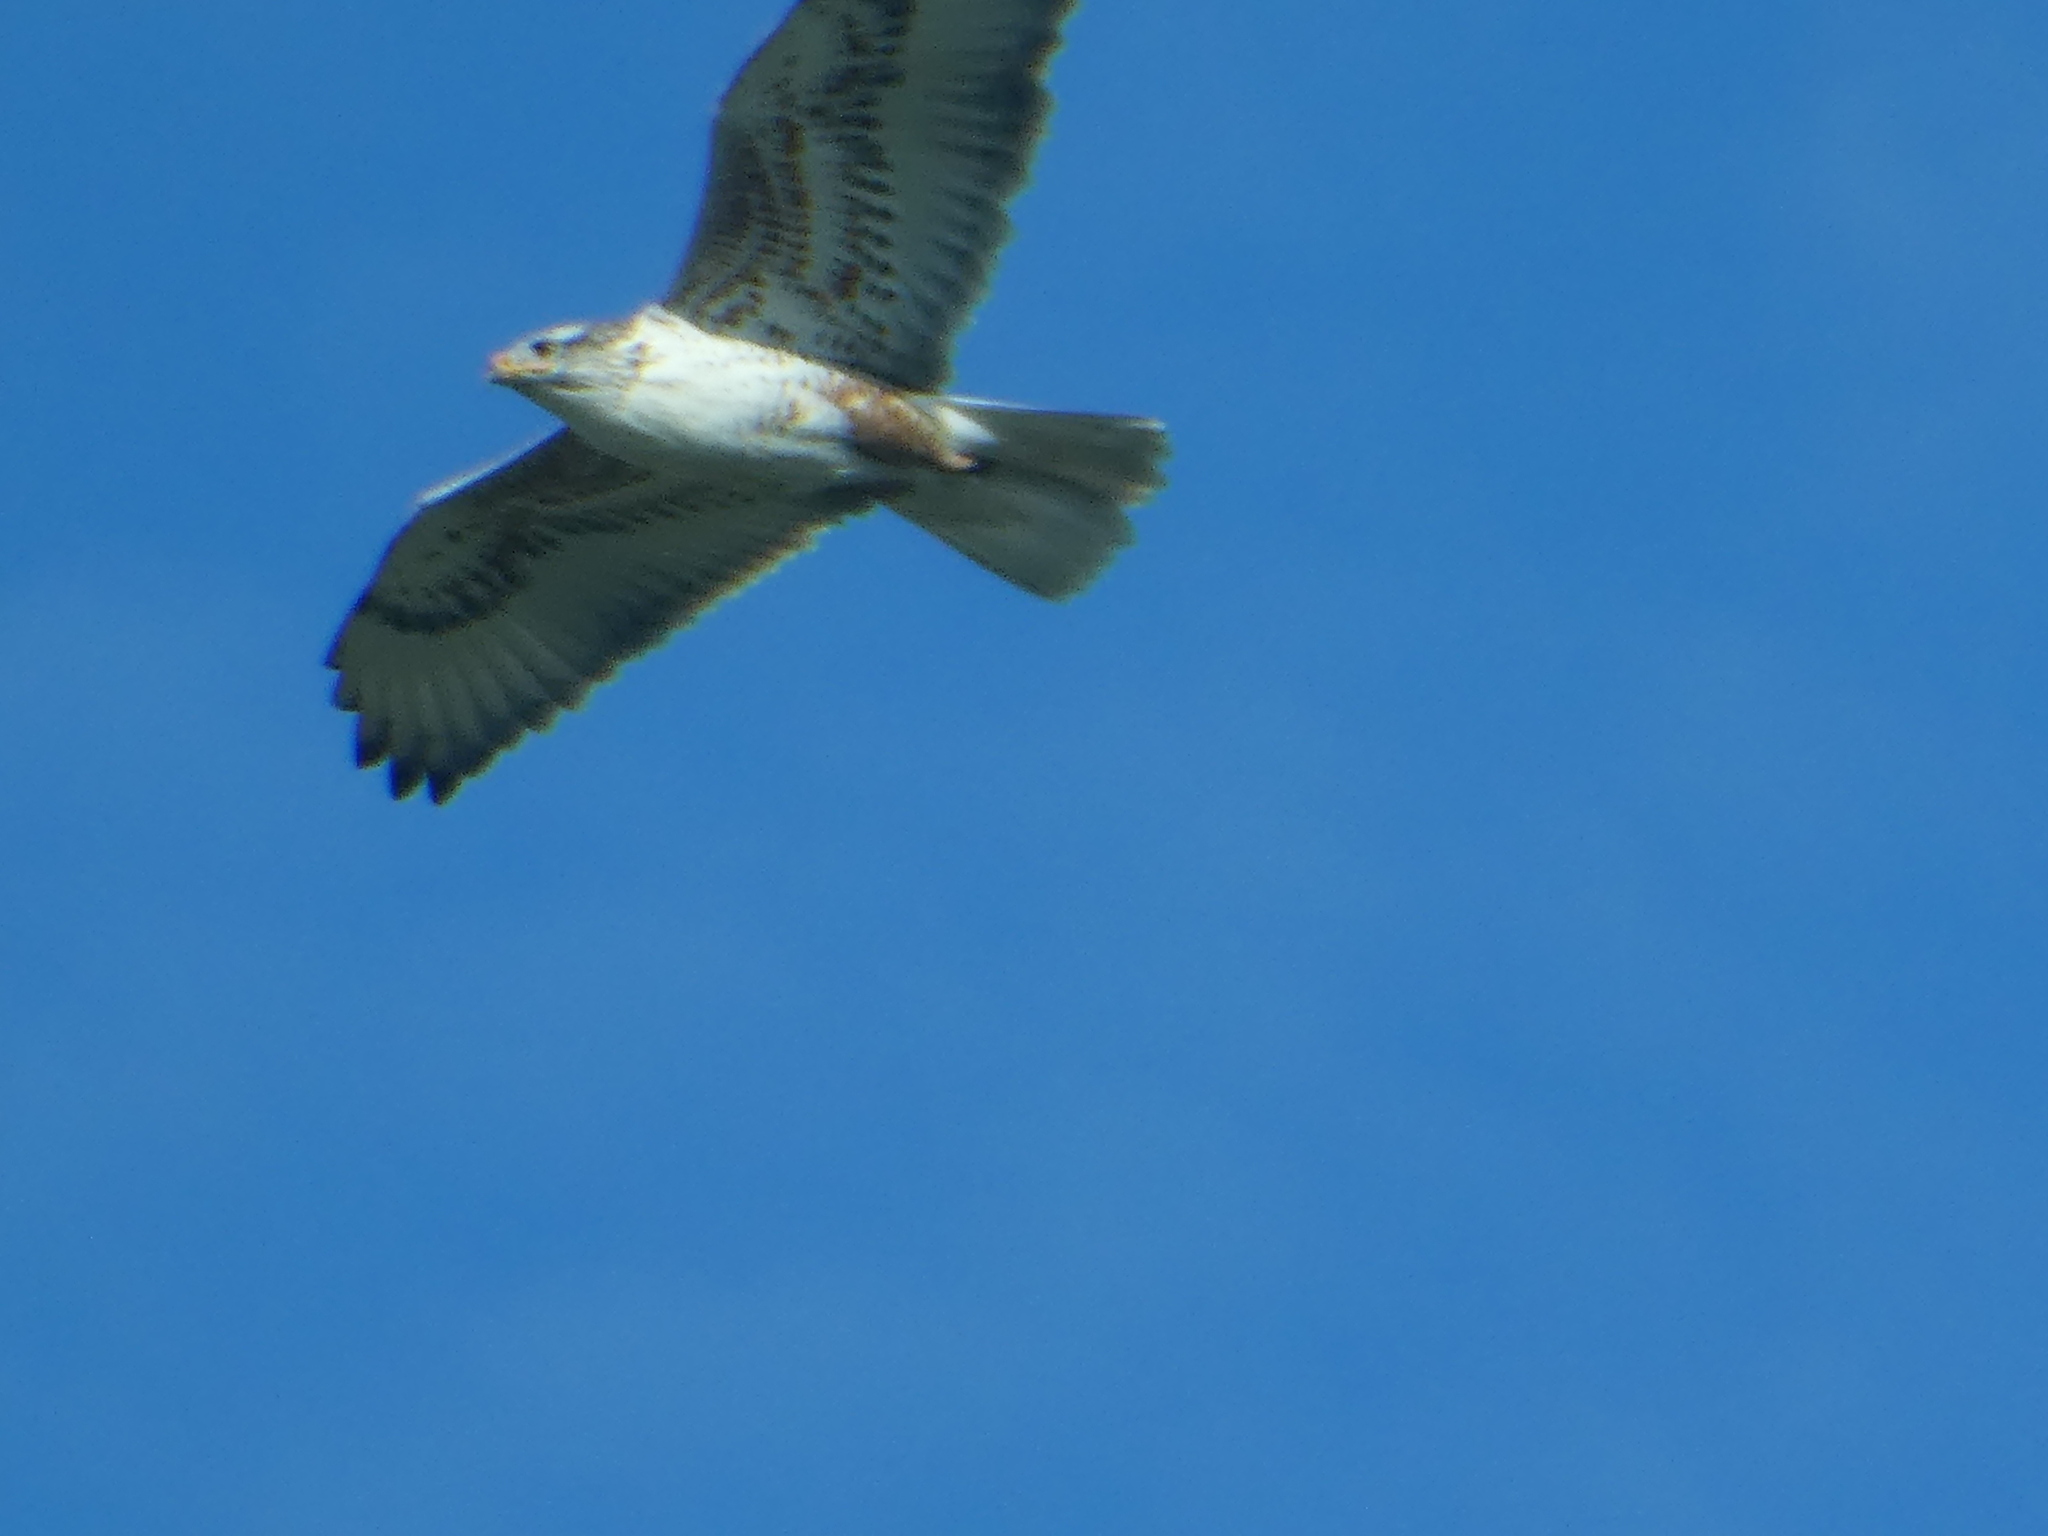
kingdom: Animalia
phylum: Chordata
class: Aves
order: Accipitriformes
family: Accipitridae
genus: Buteo
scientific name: Buteo regalis
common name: Ferruginous hawk
